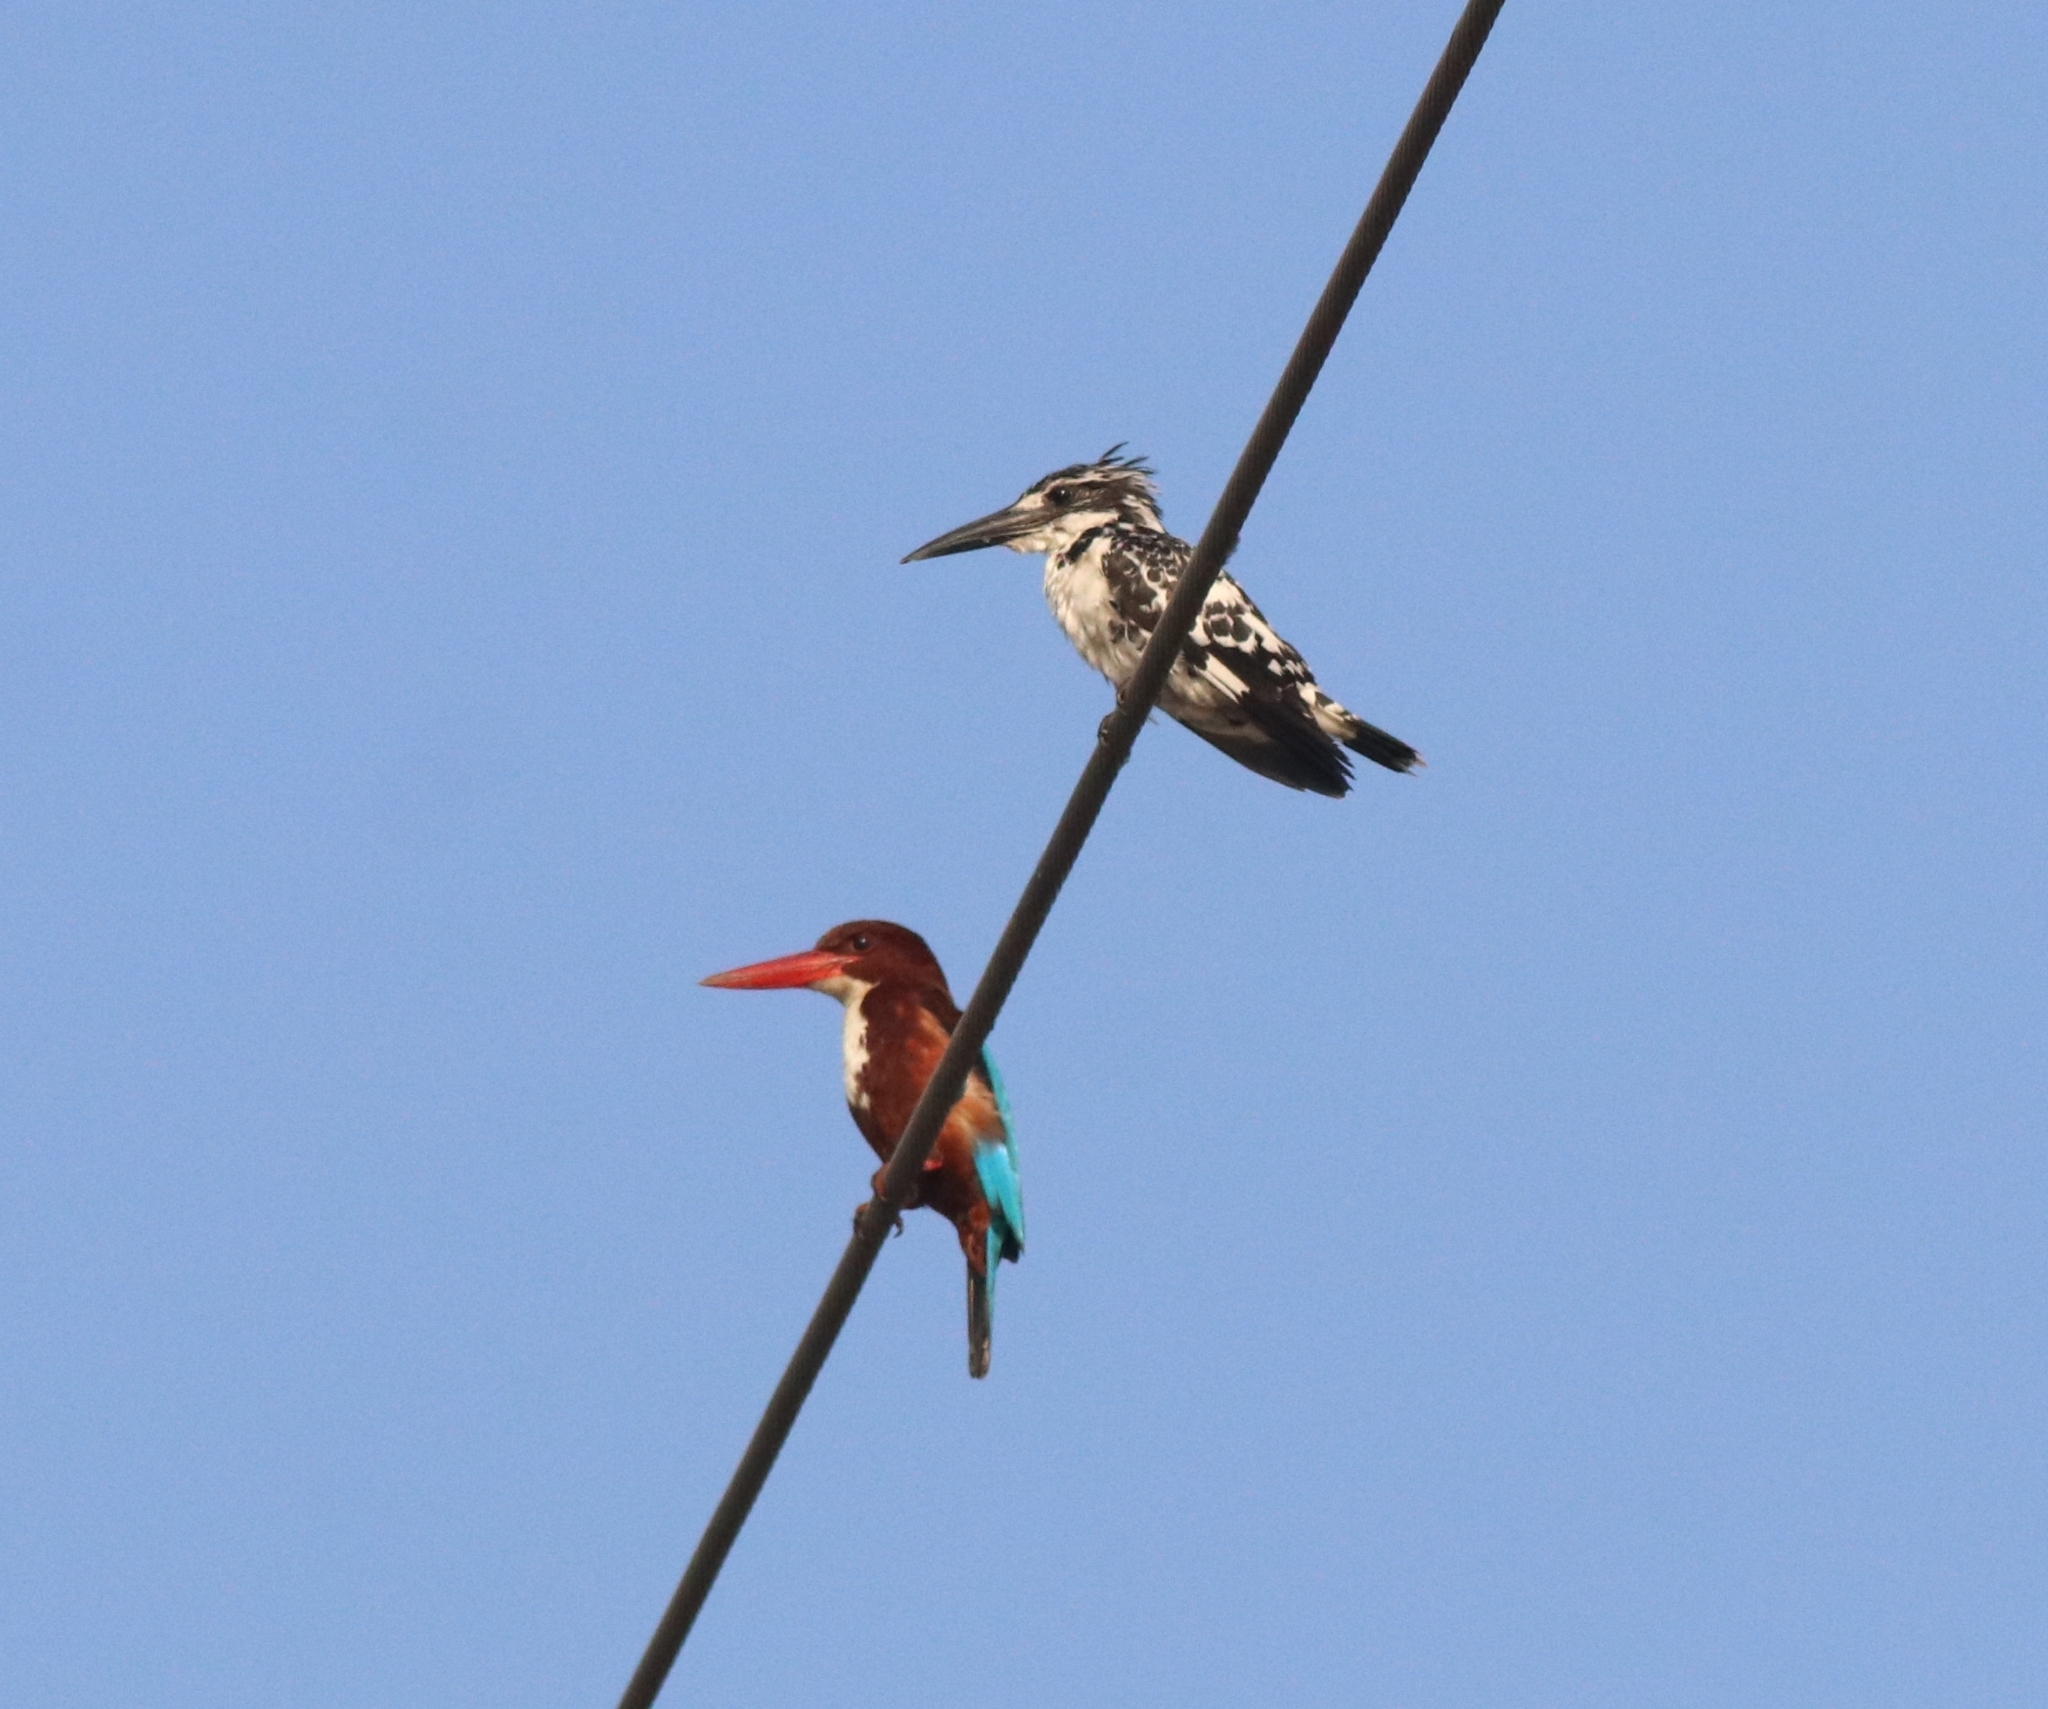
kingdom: Animalia
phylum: Chordata
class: Aves
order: Coraciiformes
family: Alcedinidae
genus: Halcyon
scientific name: Halcyon smyrnensis
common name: White-throated kingfisher
